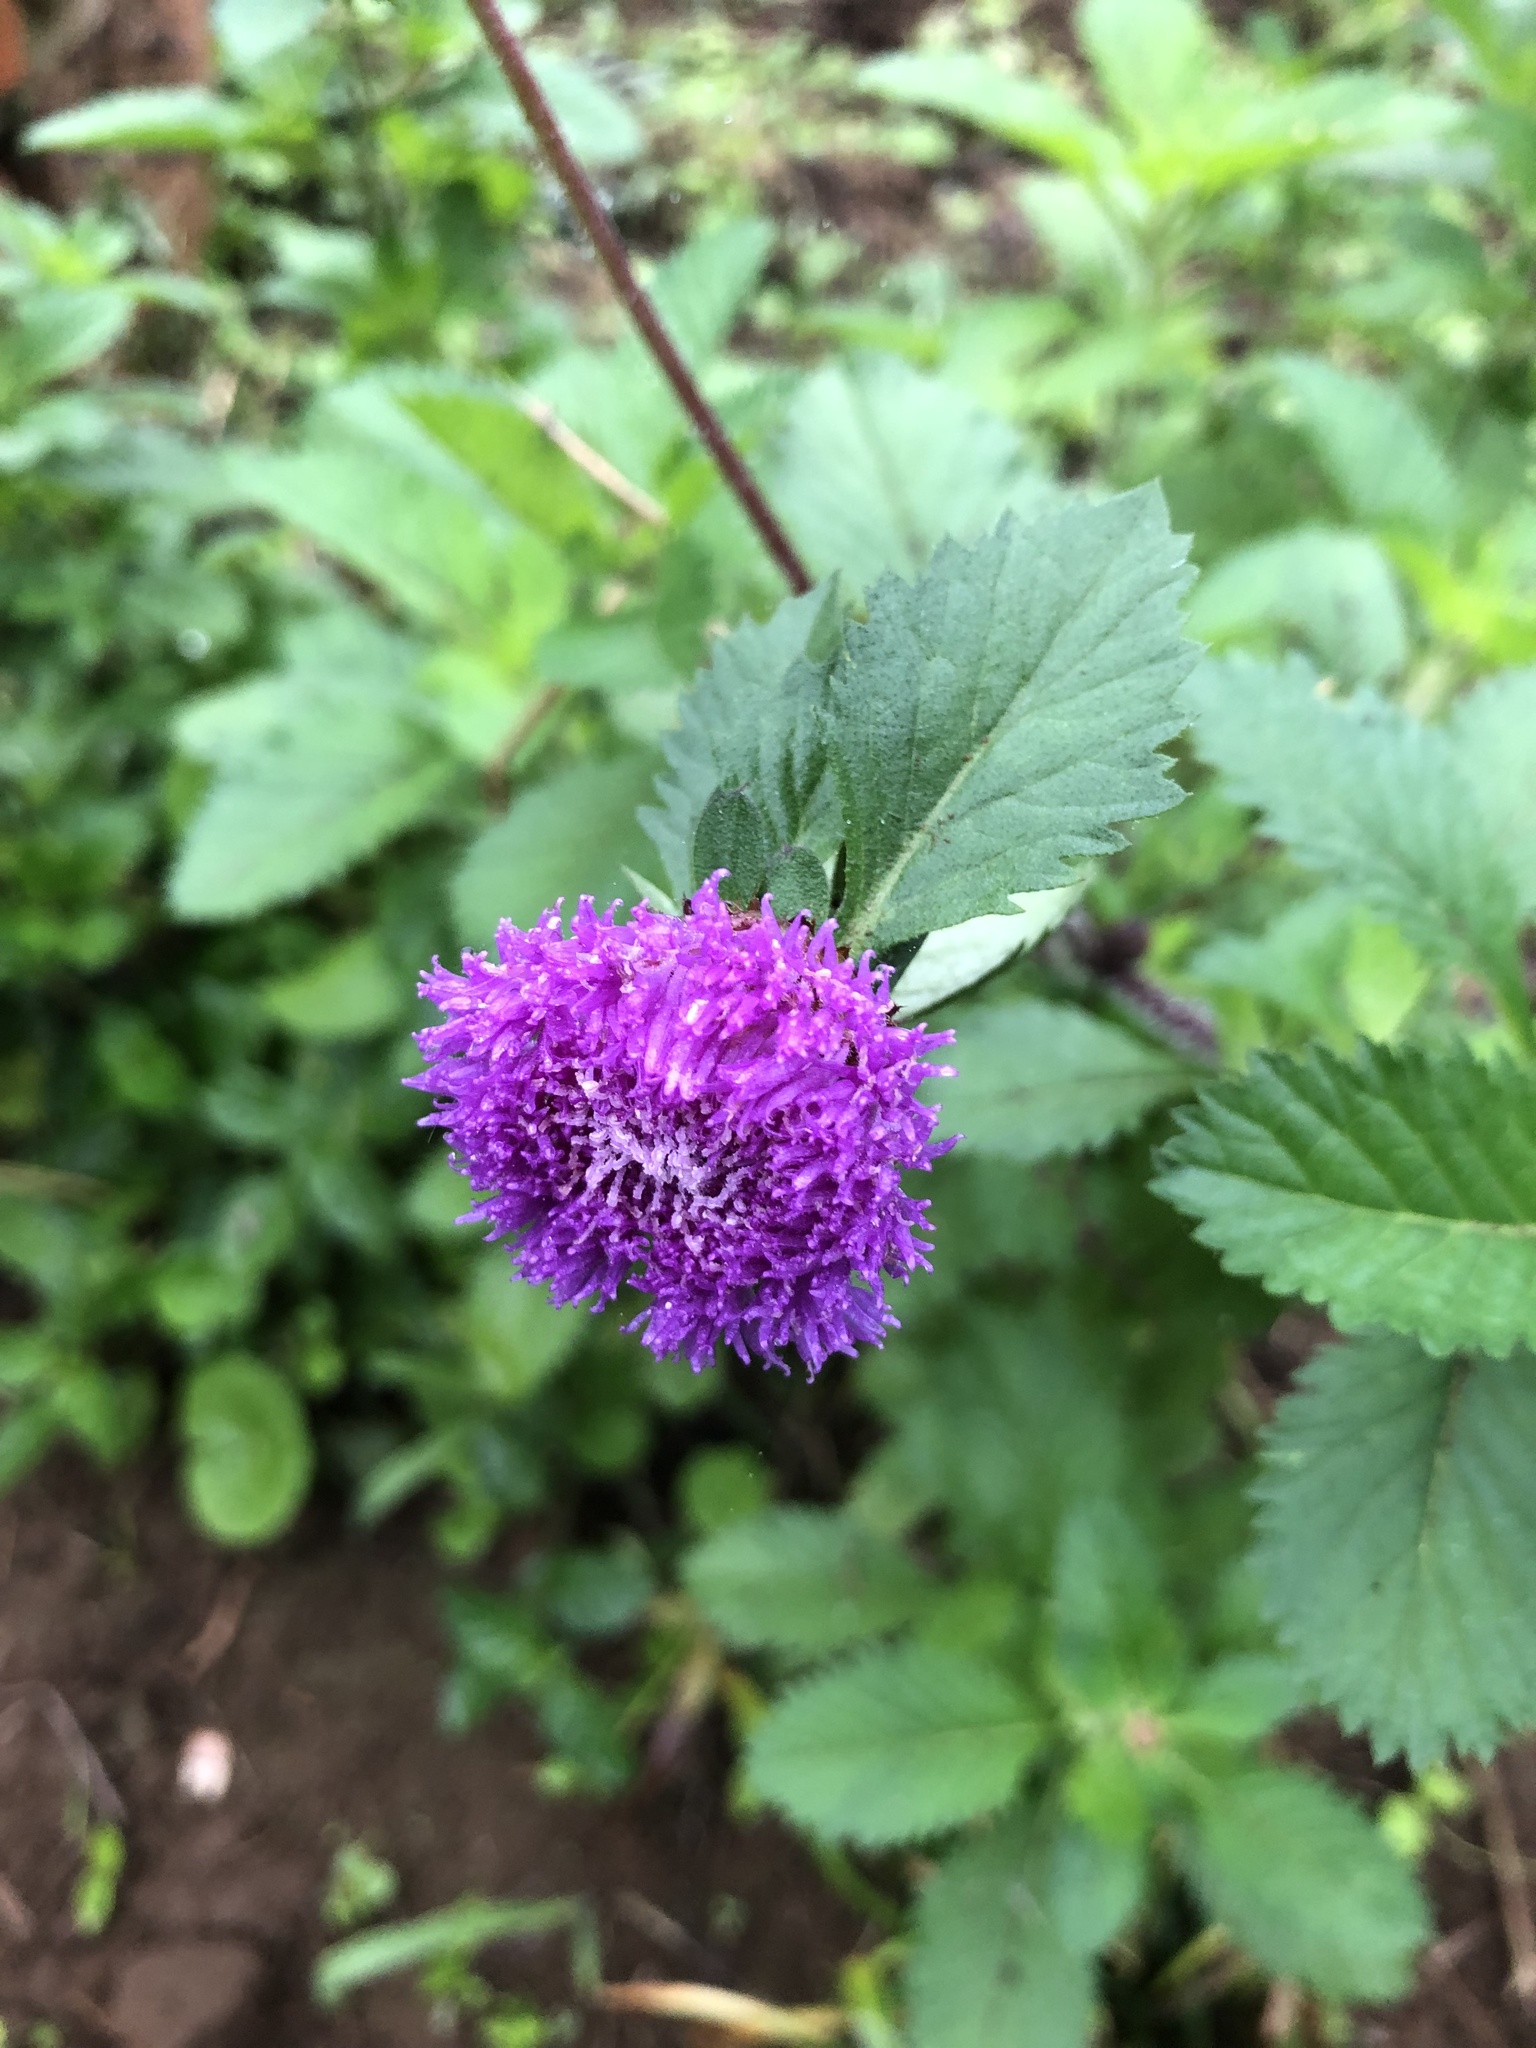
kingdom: Plantae
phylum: Tracheophyta
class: Magnoliopsida
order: Asterales
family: Asteraceae
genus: Centratherum
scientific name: Centratherum punctatum
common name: Larkdaisy
